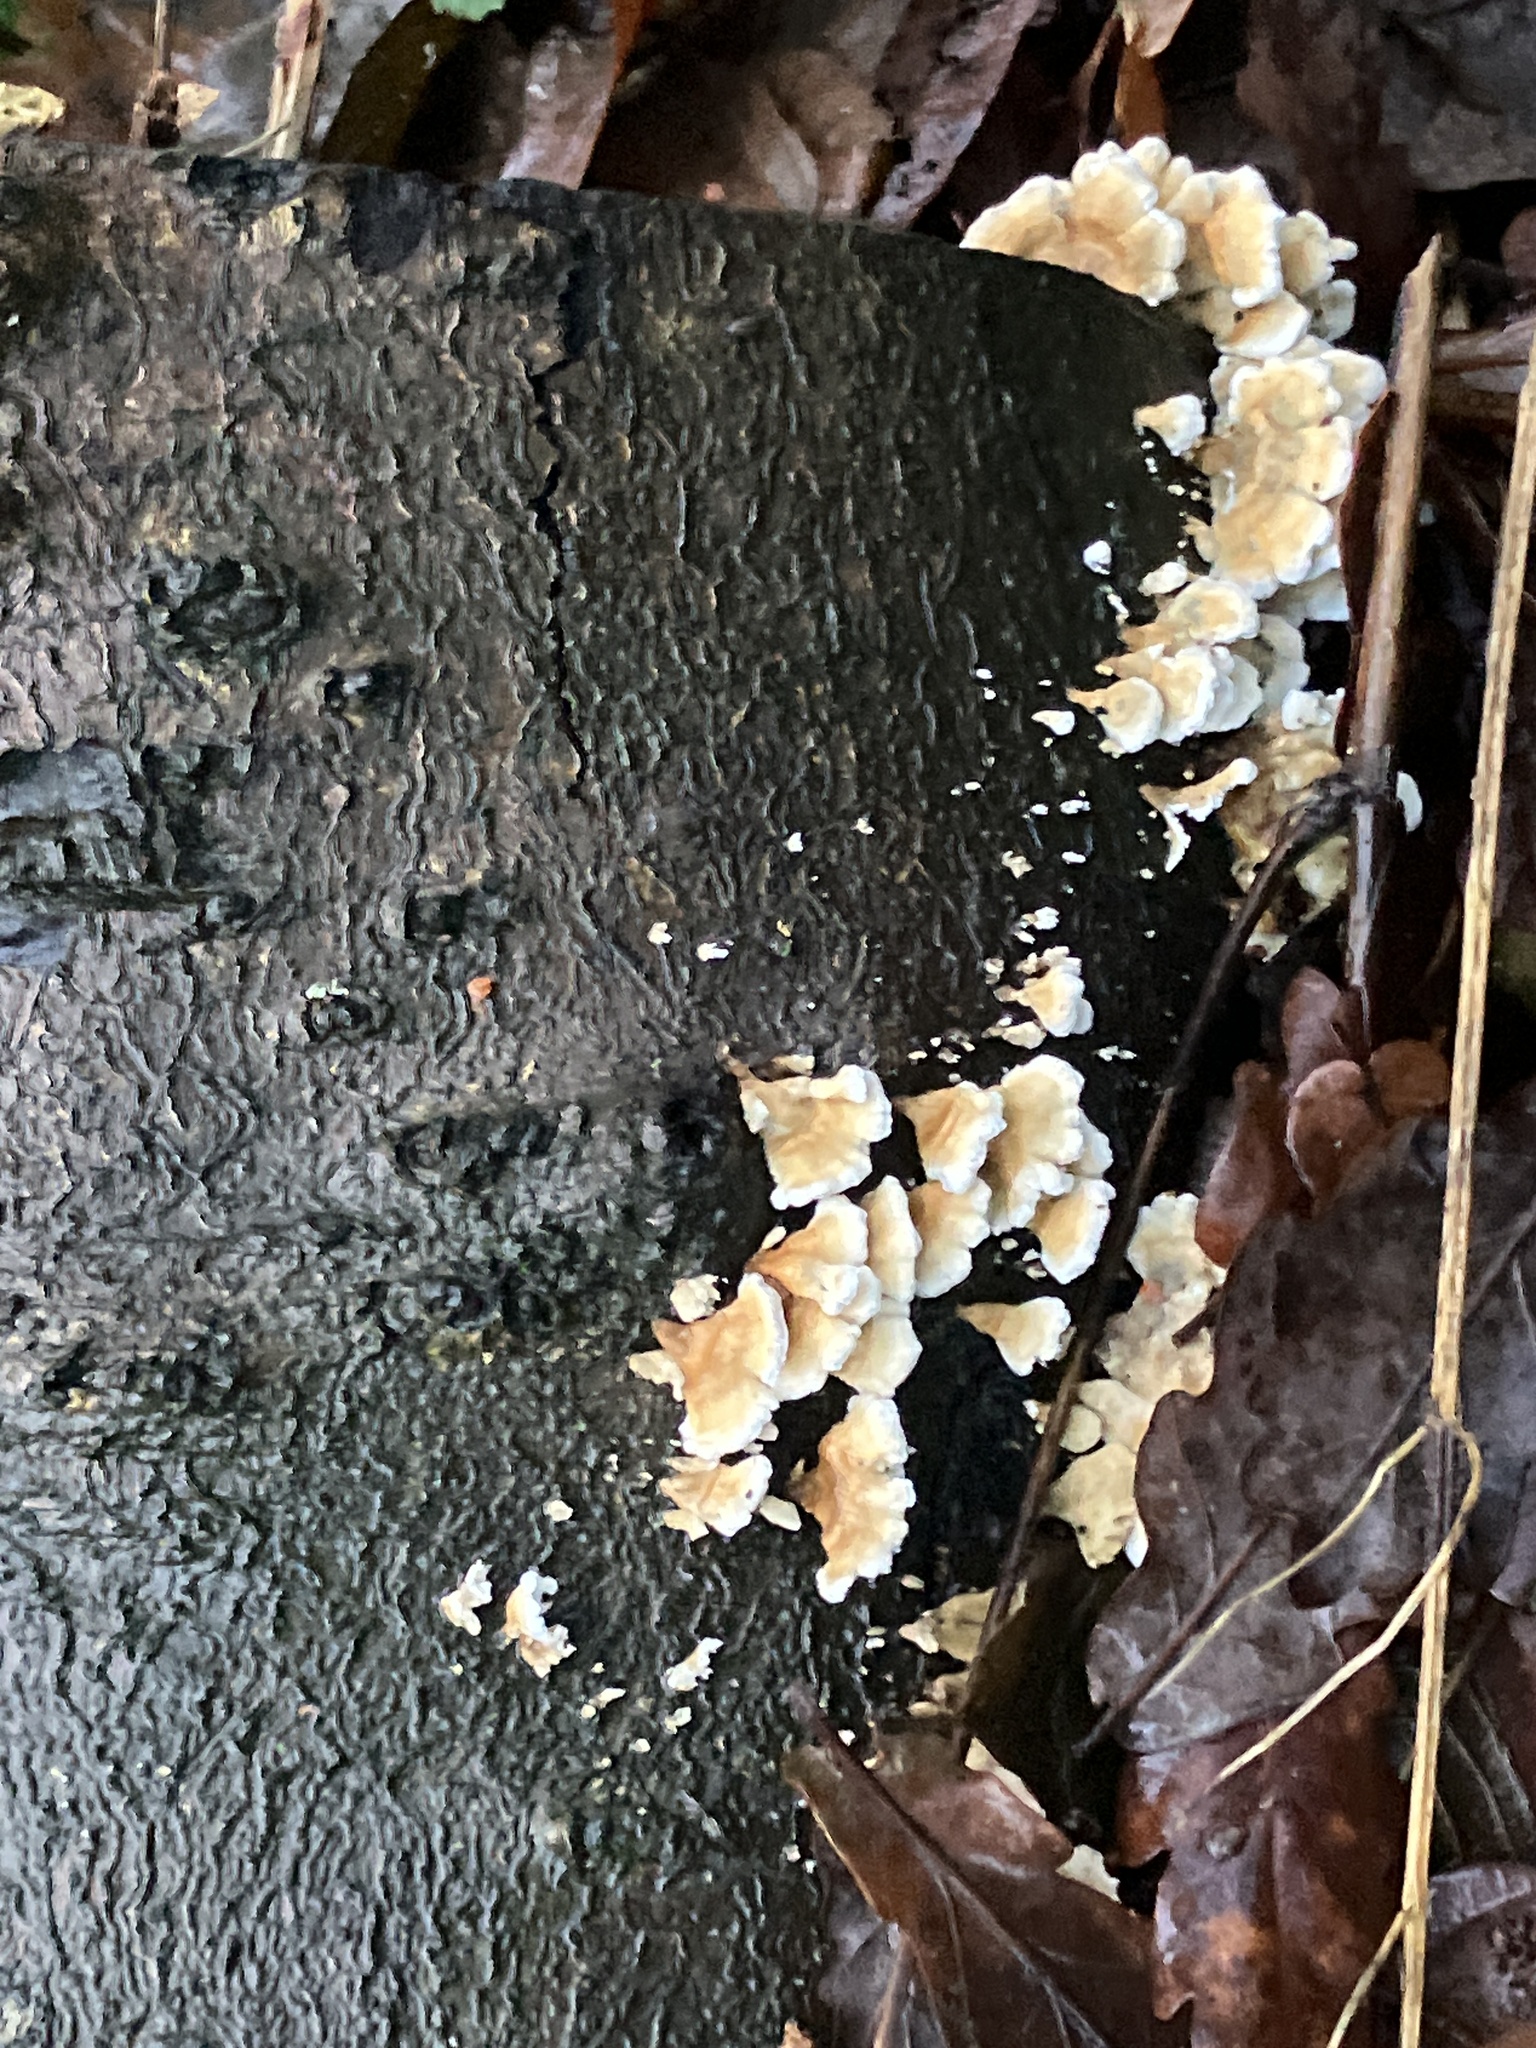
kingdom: Fungi
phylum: Basidiomycota
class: Agaricomycetes
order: Amylocorticiales
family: Amylocorticiaceae
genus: Plicaturopsis
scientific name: Plicaturopsis crispa
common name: Crimped gill
